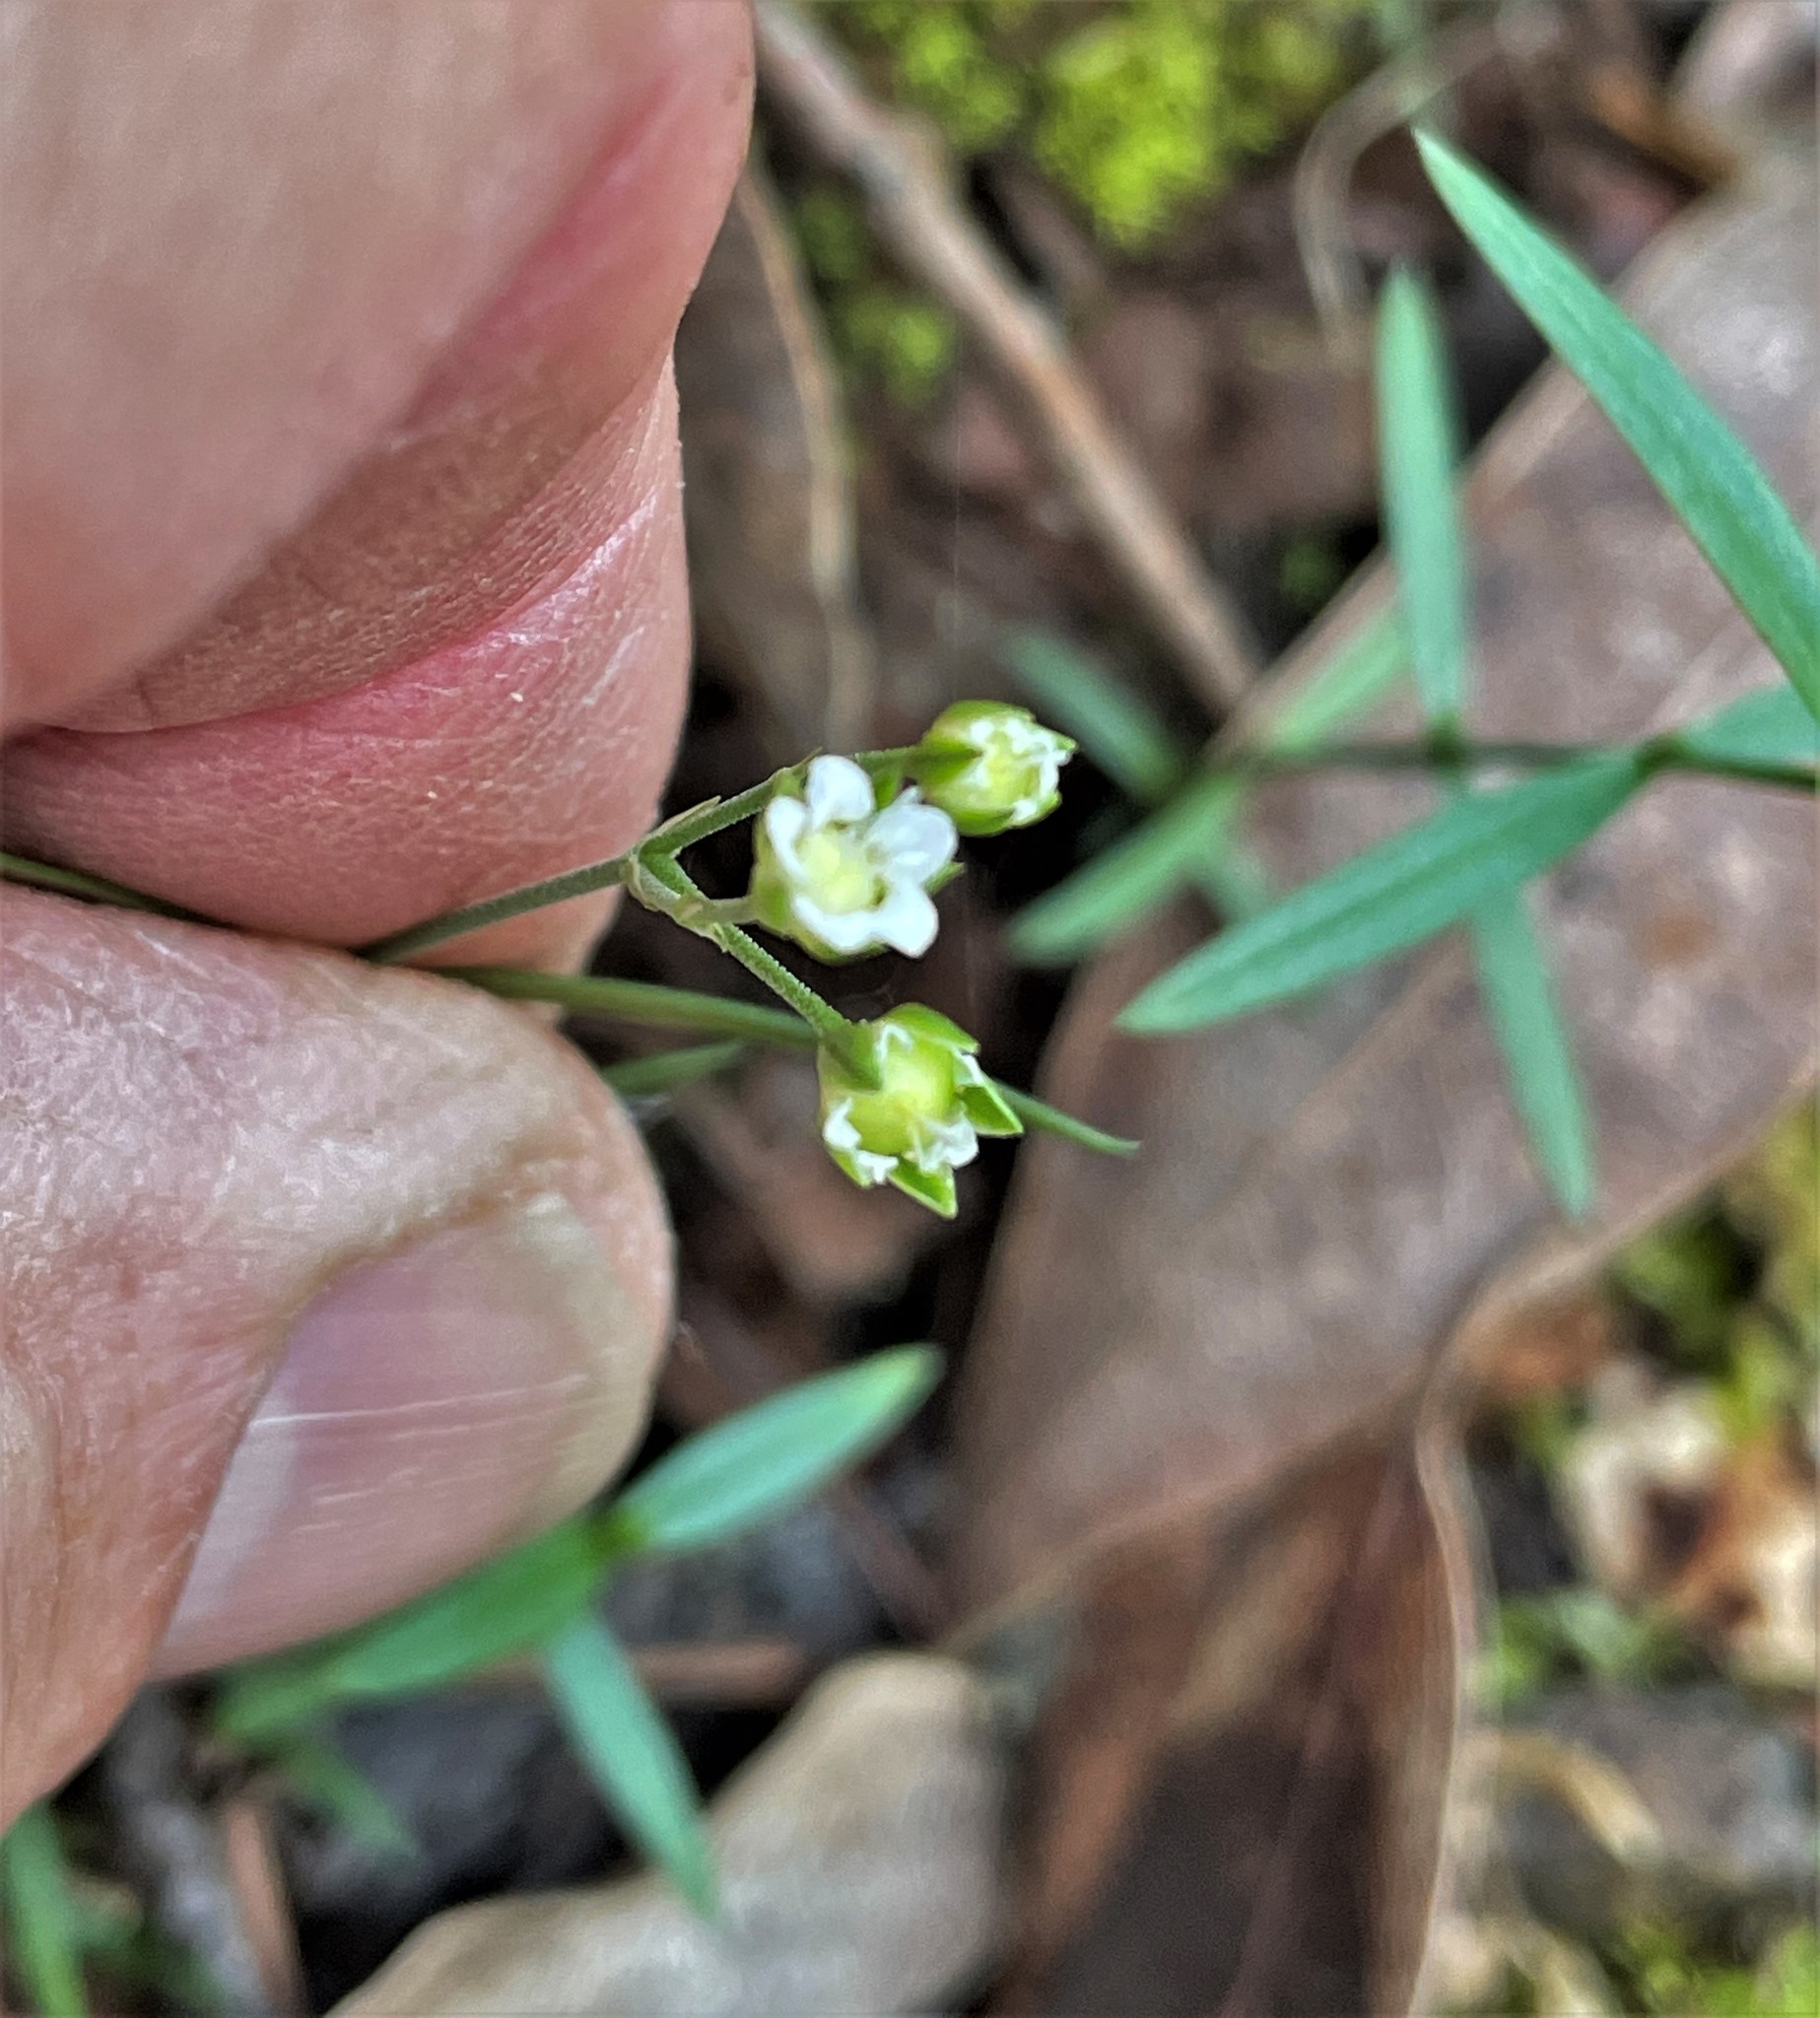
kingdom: Plantae
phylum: Tracheophyta
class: Magnoliopsida
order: Caryophyllales
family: Caryophyllaceae
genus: Moehringia
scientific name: Moehringia macrophylla
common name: Big-leaf sandwort
